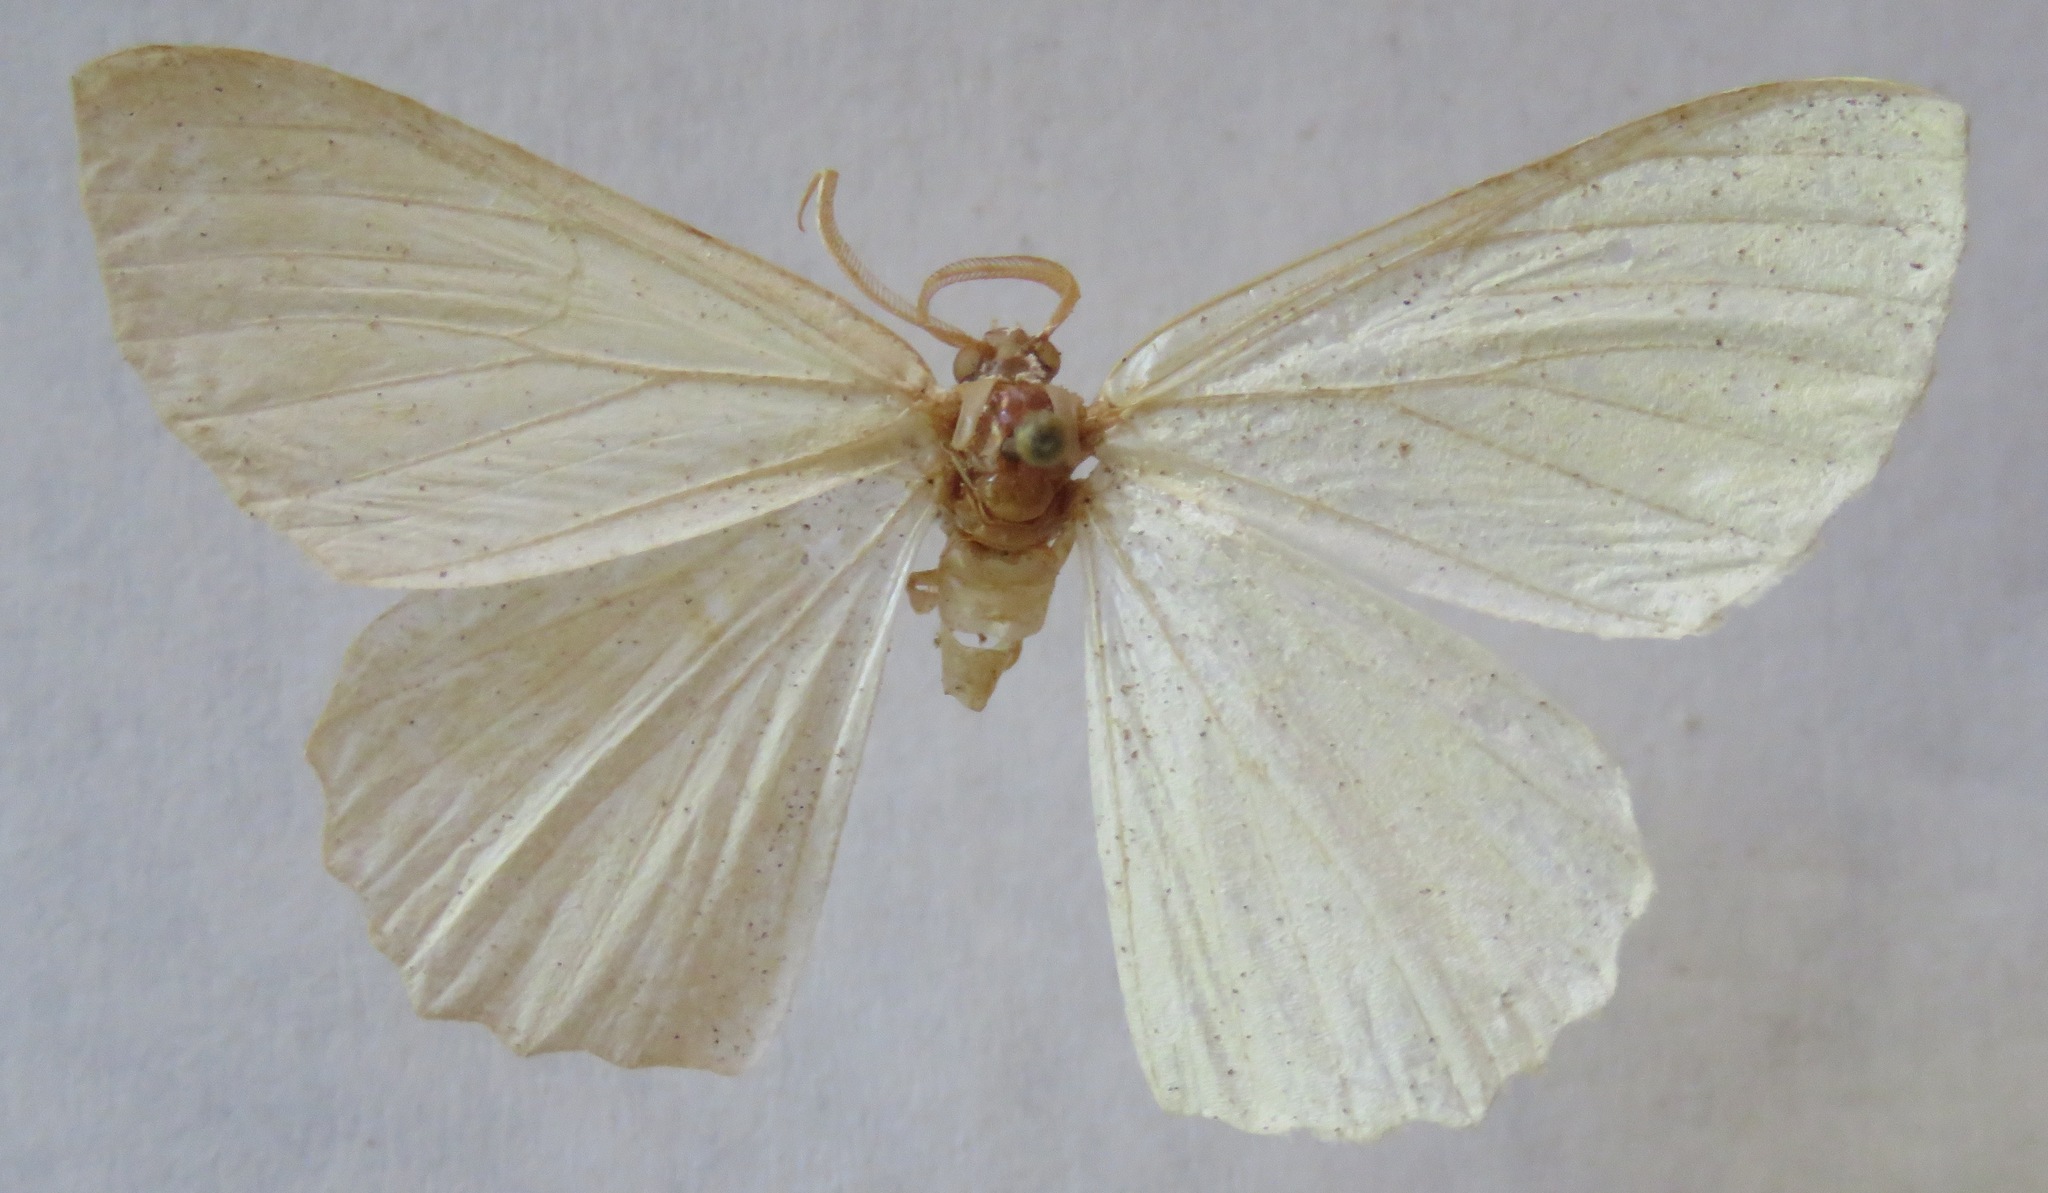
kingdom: Animalia
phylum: Arthropoda
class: Insecta
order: Lepidoptera
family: Geometridae
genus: Geometra
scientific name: Geometra papilionaria
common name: Large emerald
